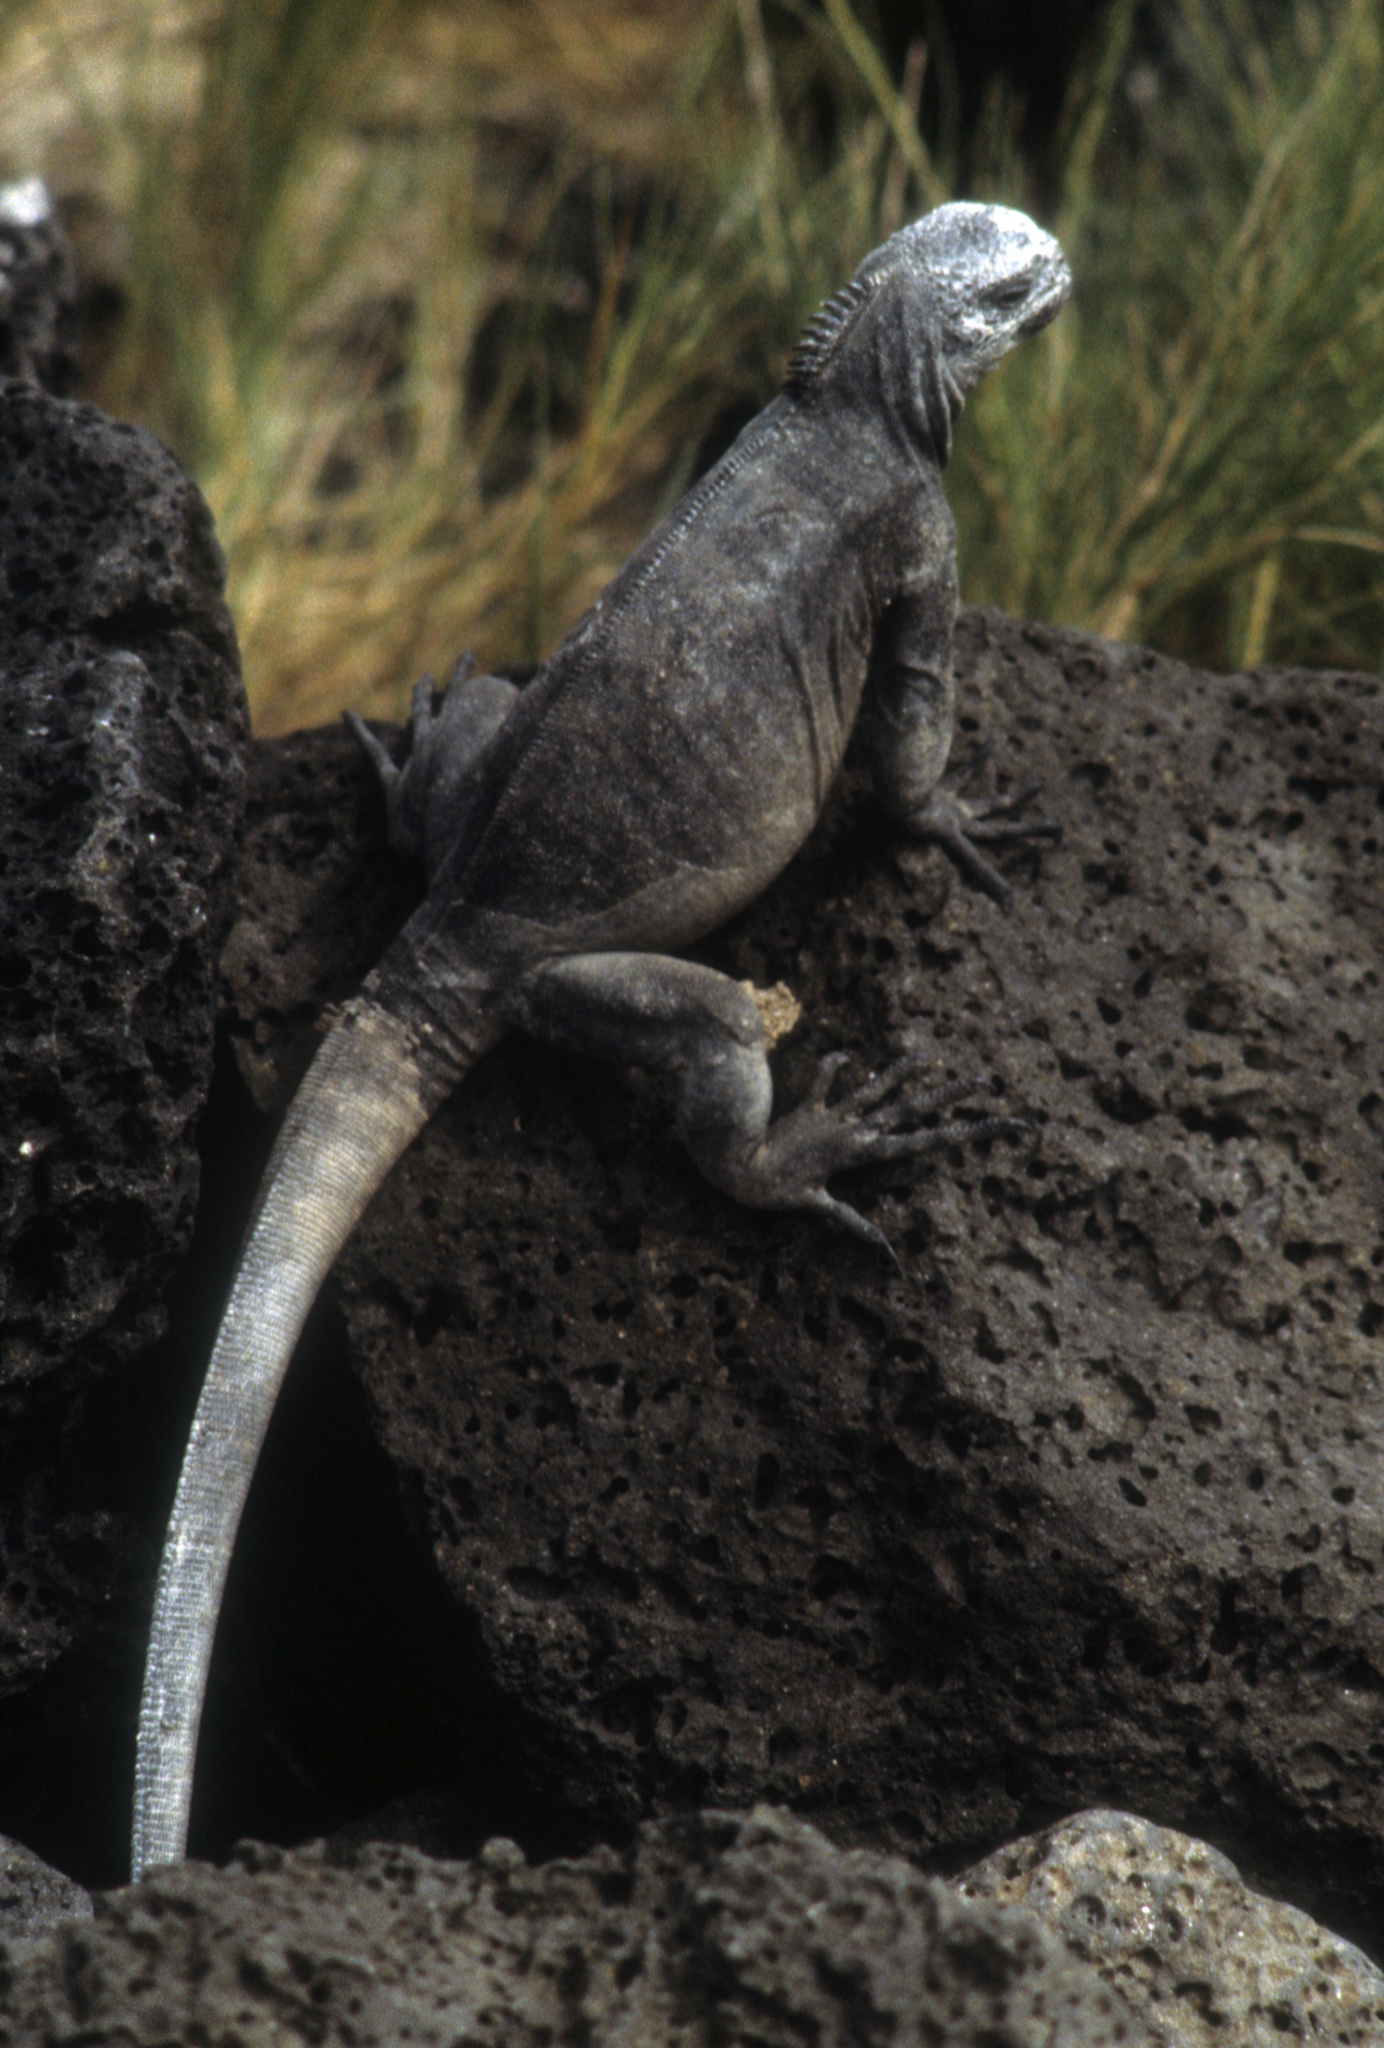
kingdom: Animalia
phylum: Chordata
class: Squamata
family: Iguanidae
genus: Amblyrhynchus
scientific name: Amblyrhynchus cristatus
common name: Marine iguana
